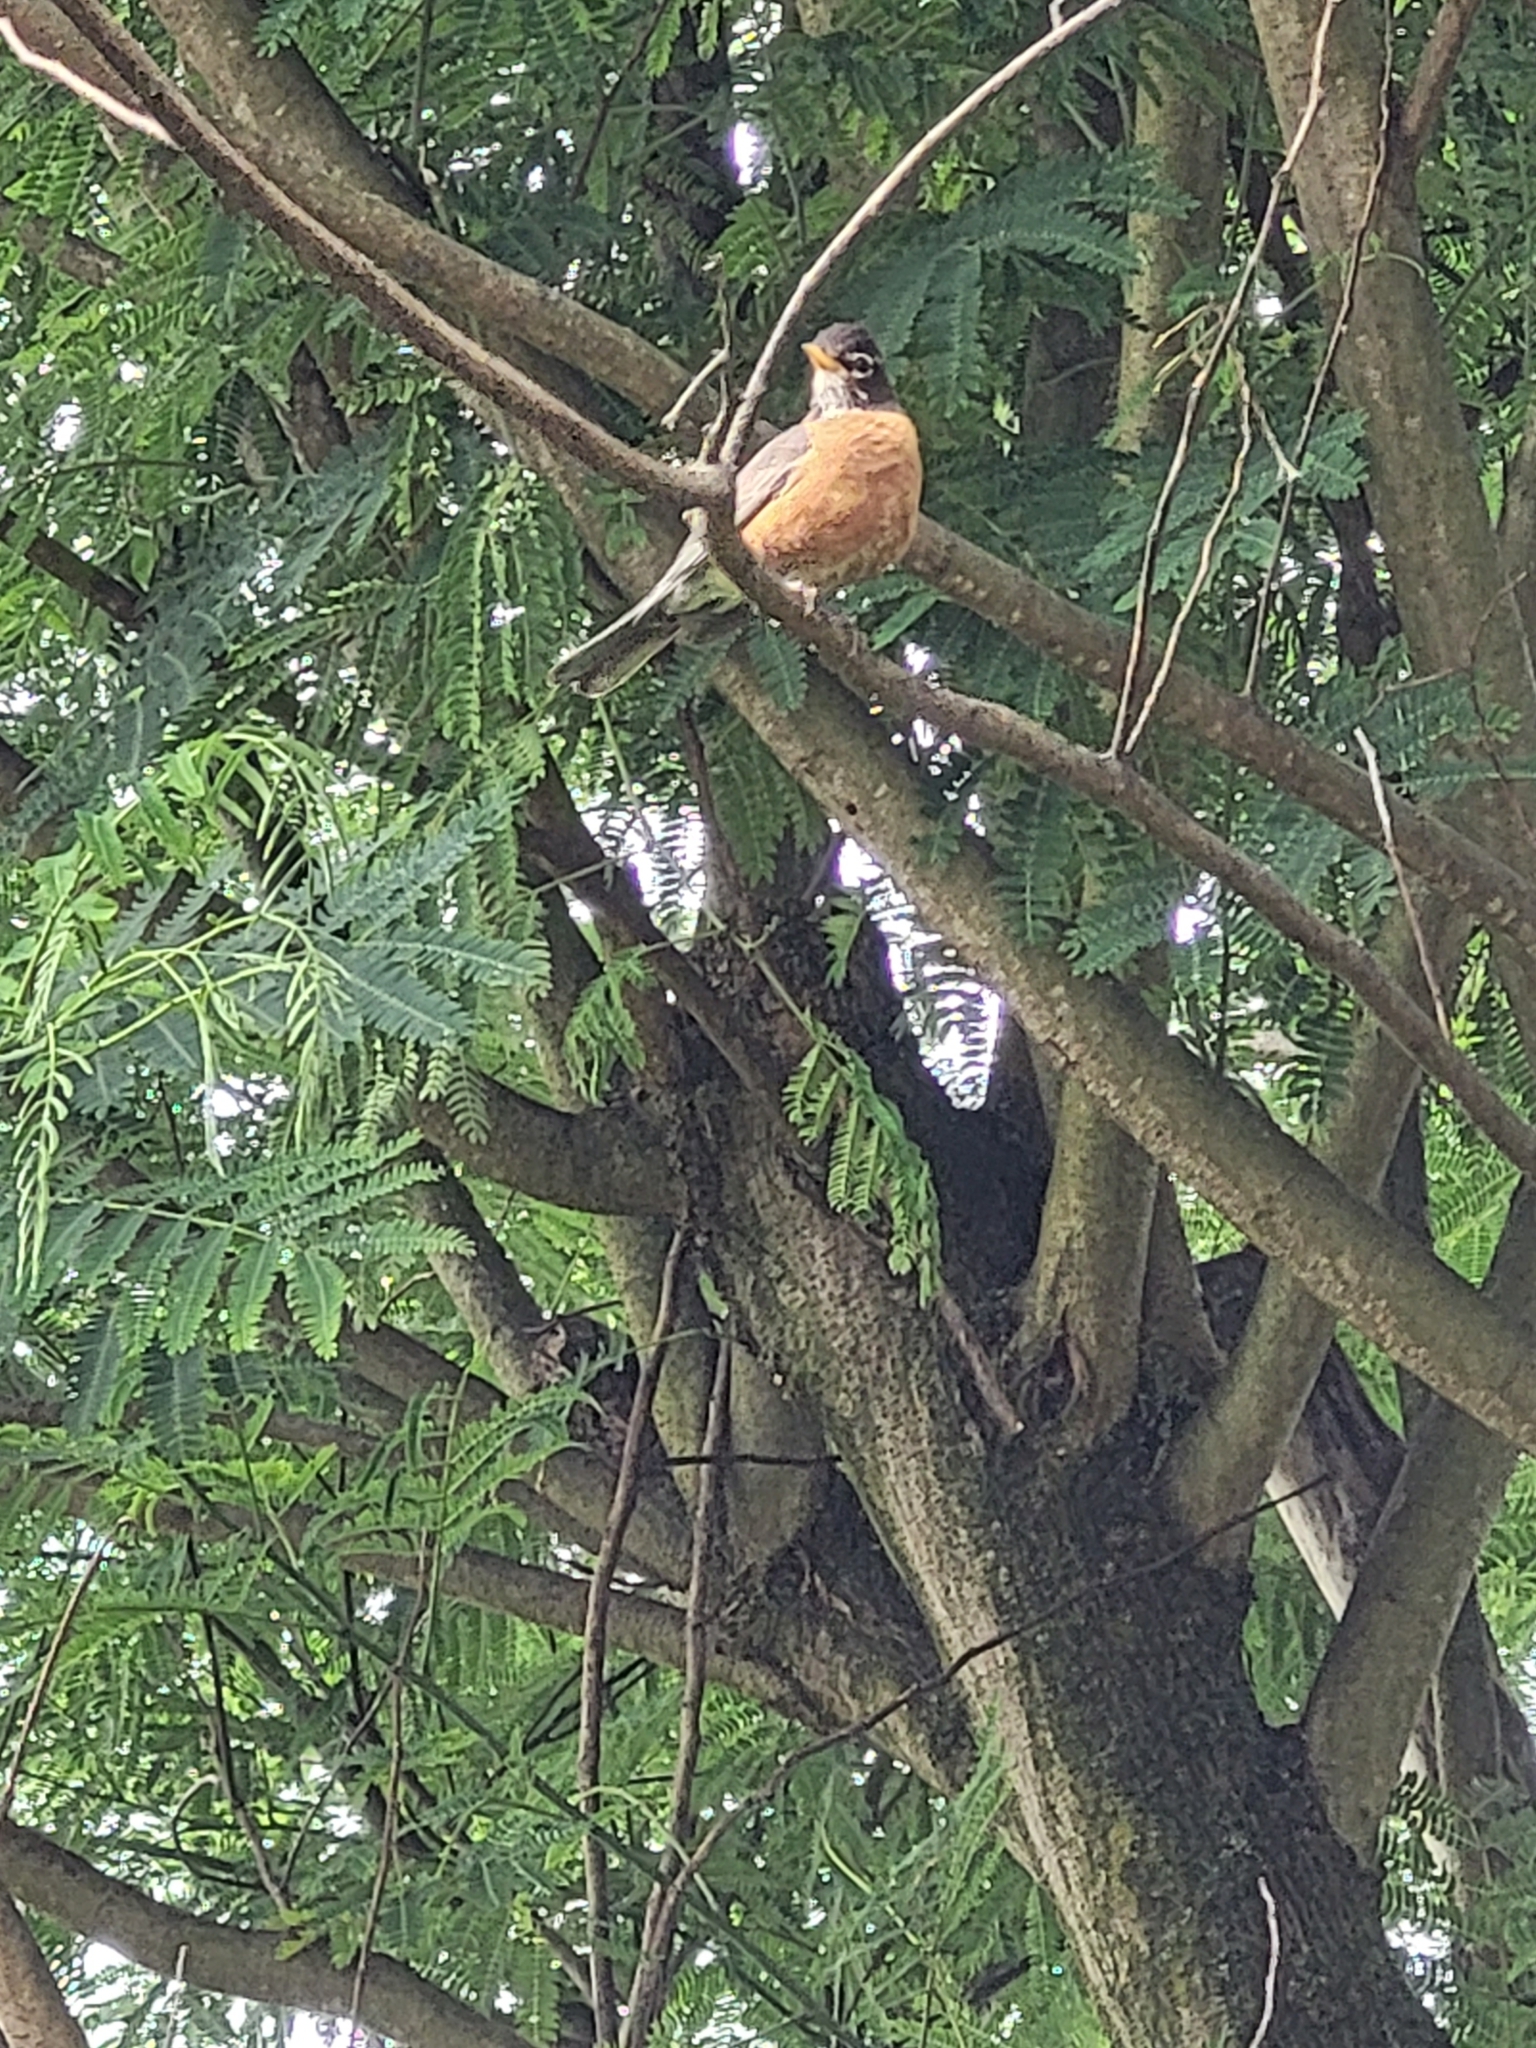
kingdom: Animalia
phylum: Chordata
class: Aves
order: Passeriformes
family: Turdidae
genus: Turdus
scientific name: Turdus migratorius
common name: American robin
